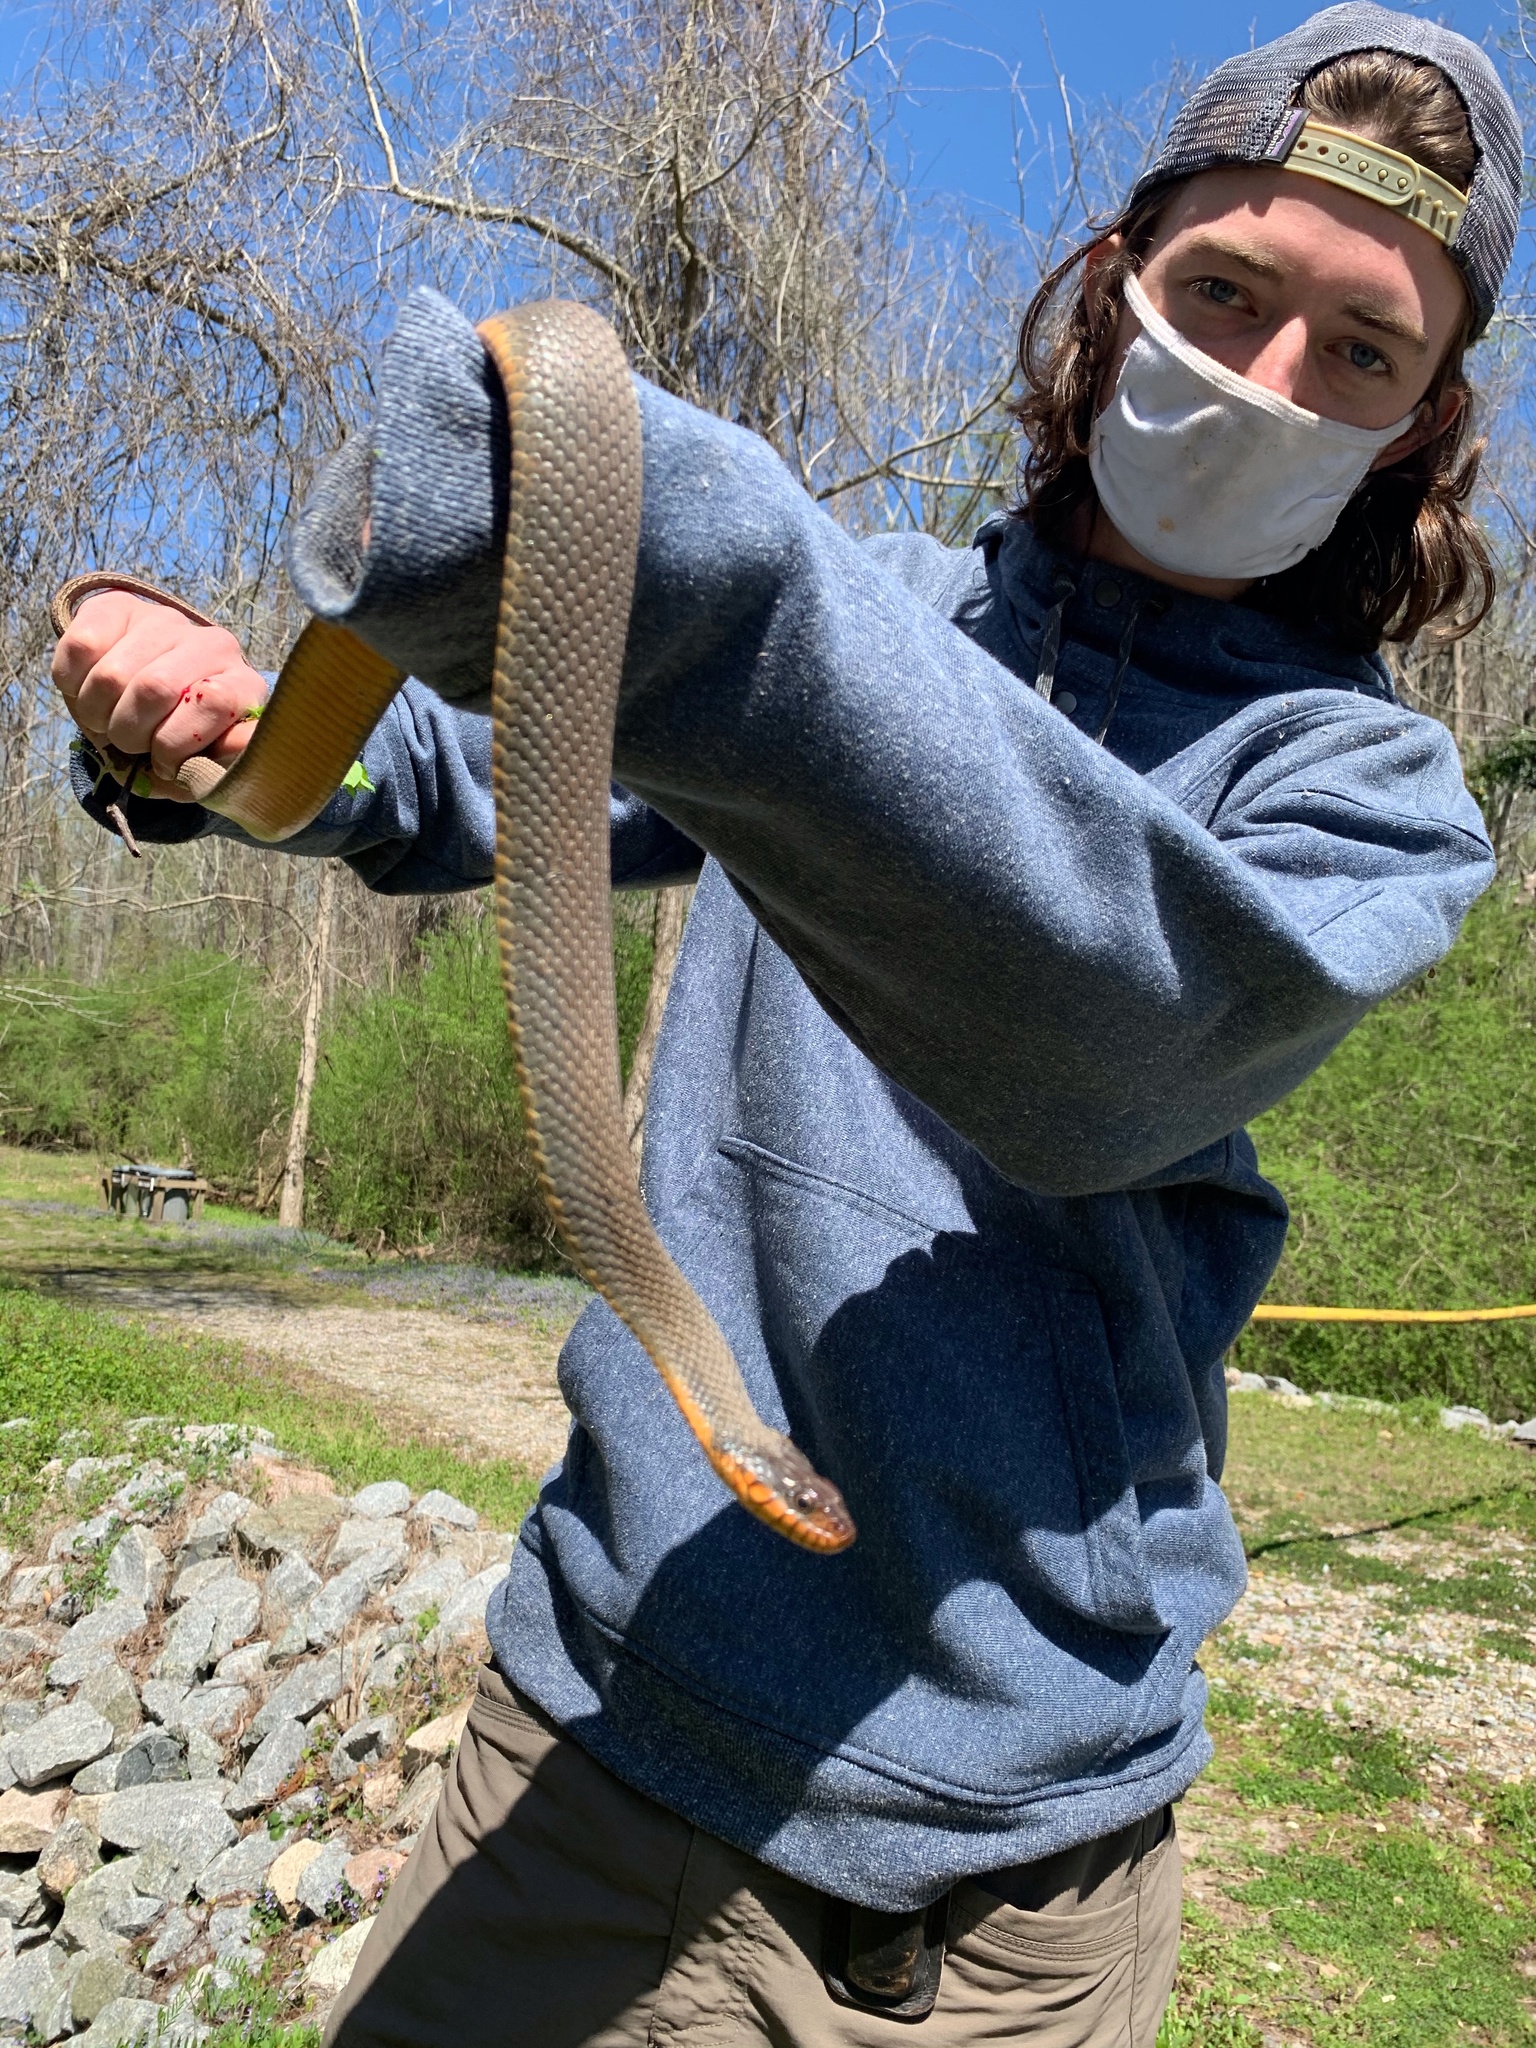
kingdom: Animalia
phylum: Chordata
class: Squamata
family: Colubridae
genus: Nerodia
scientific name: Nerodia erythrogaster
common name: Plainbelly water snake
